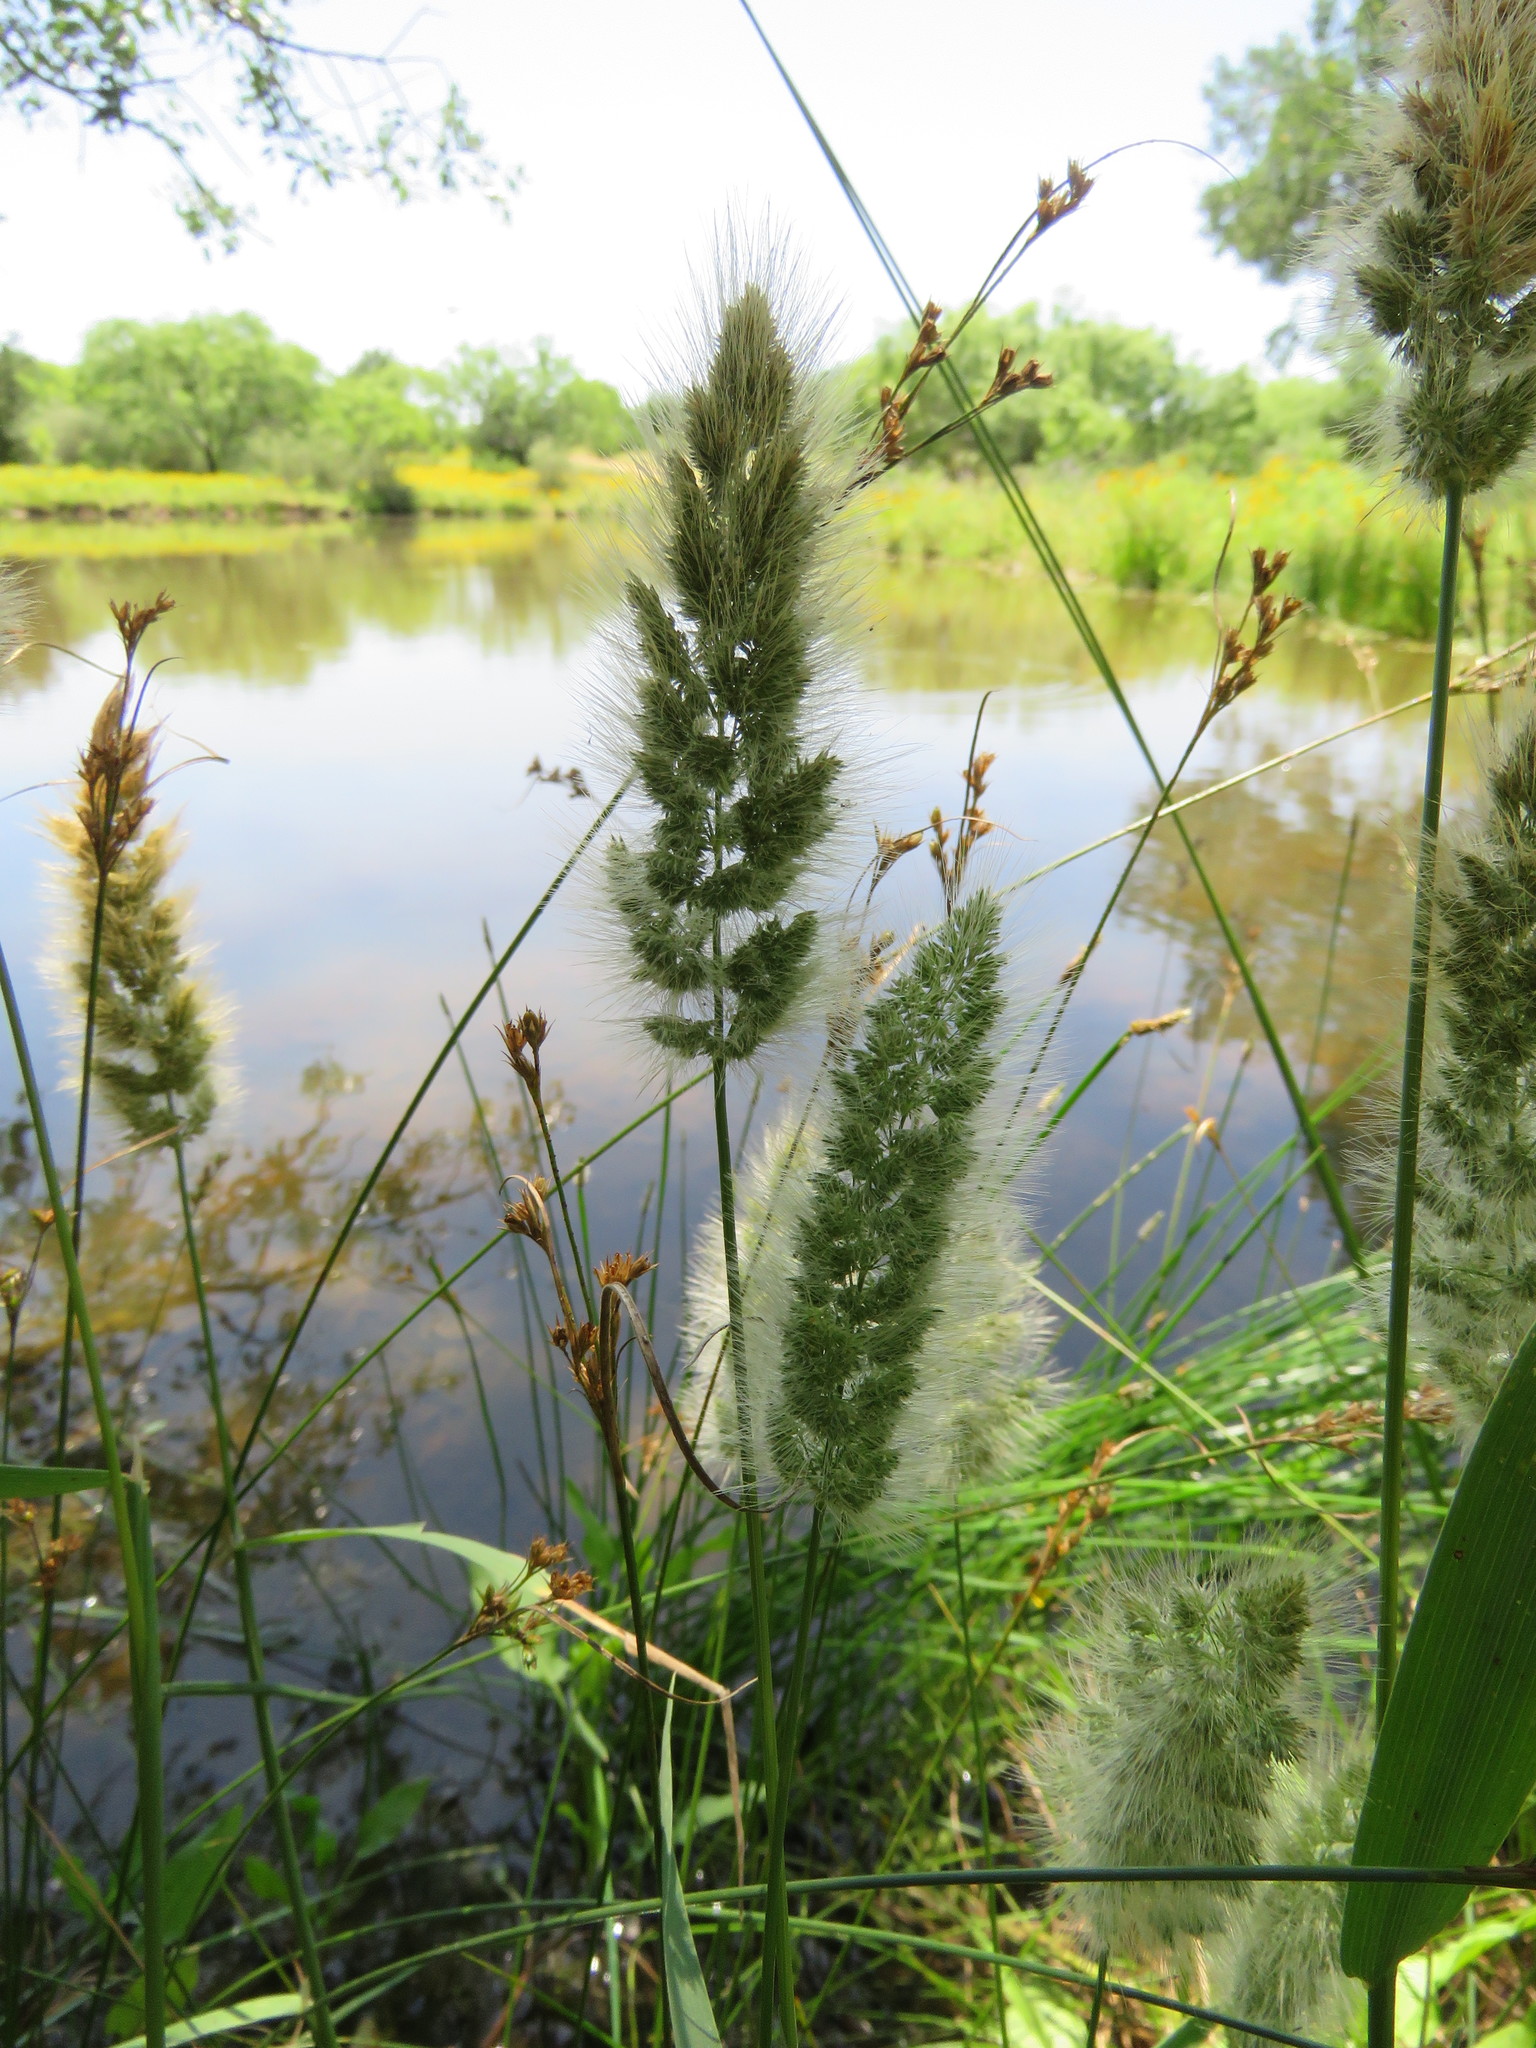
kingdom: Plantae
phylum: Tracheophyta
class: Liliopsida
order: Poales
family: Poaceae
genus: Polypogon
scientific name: Polypogon monspeliensis
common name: Annual rabbitsfoot grass
